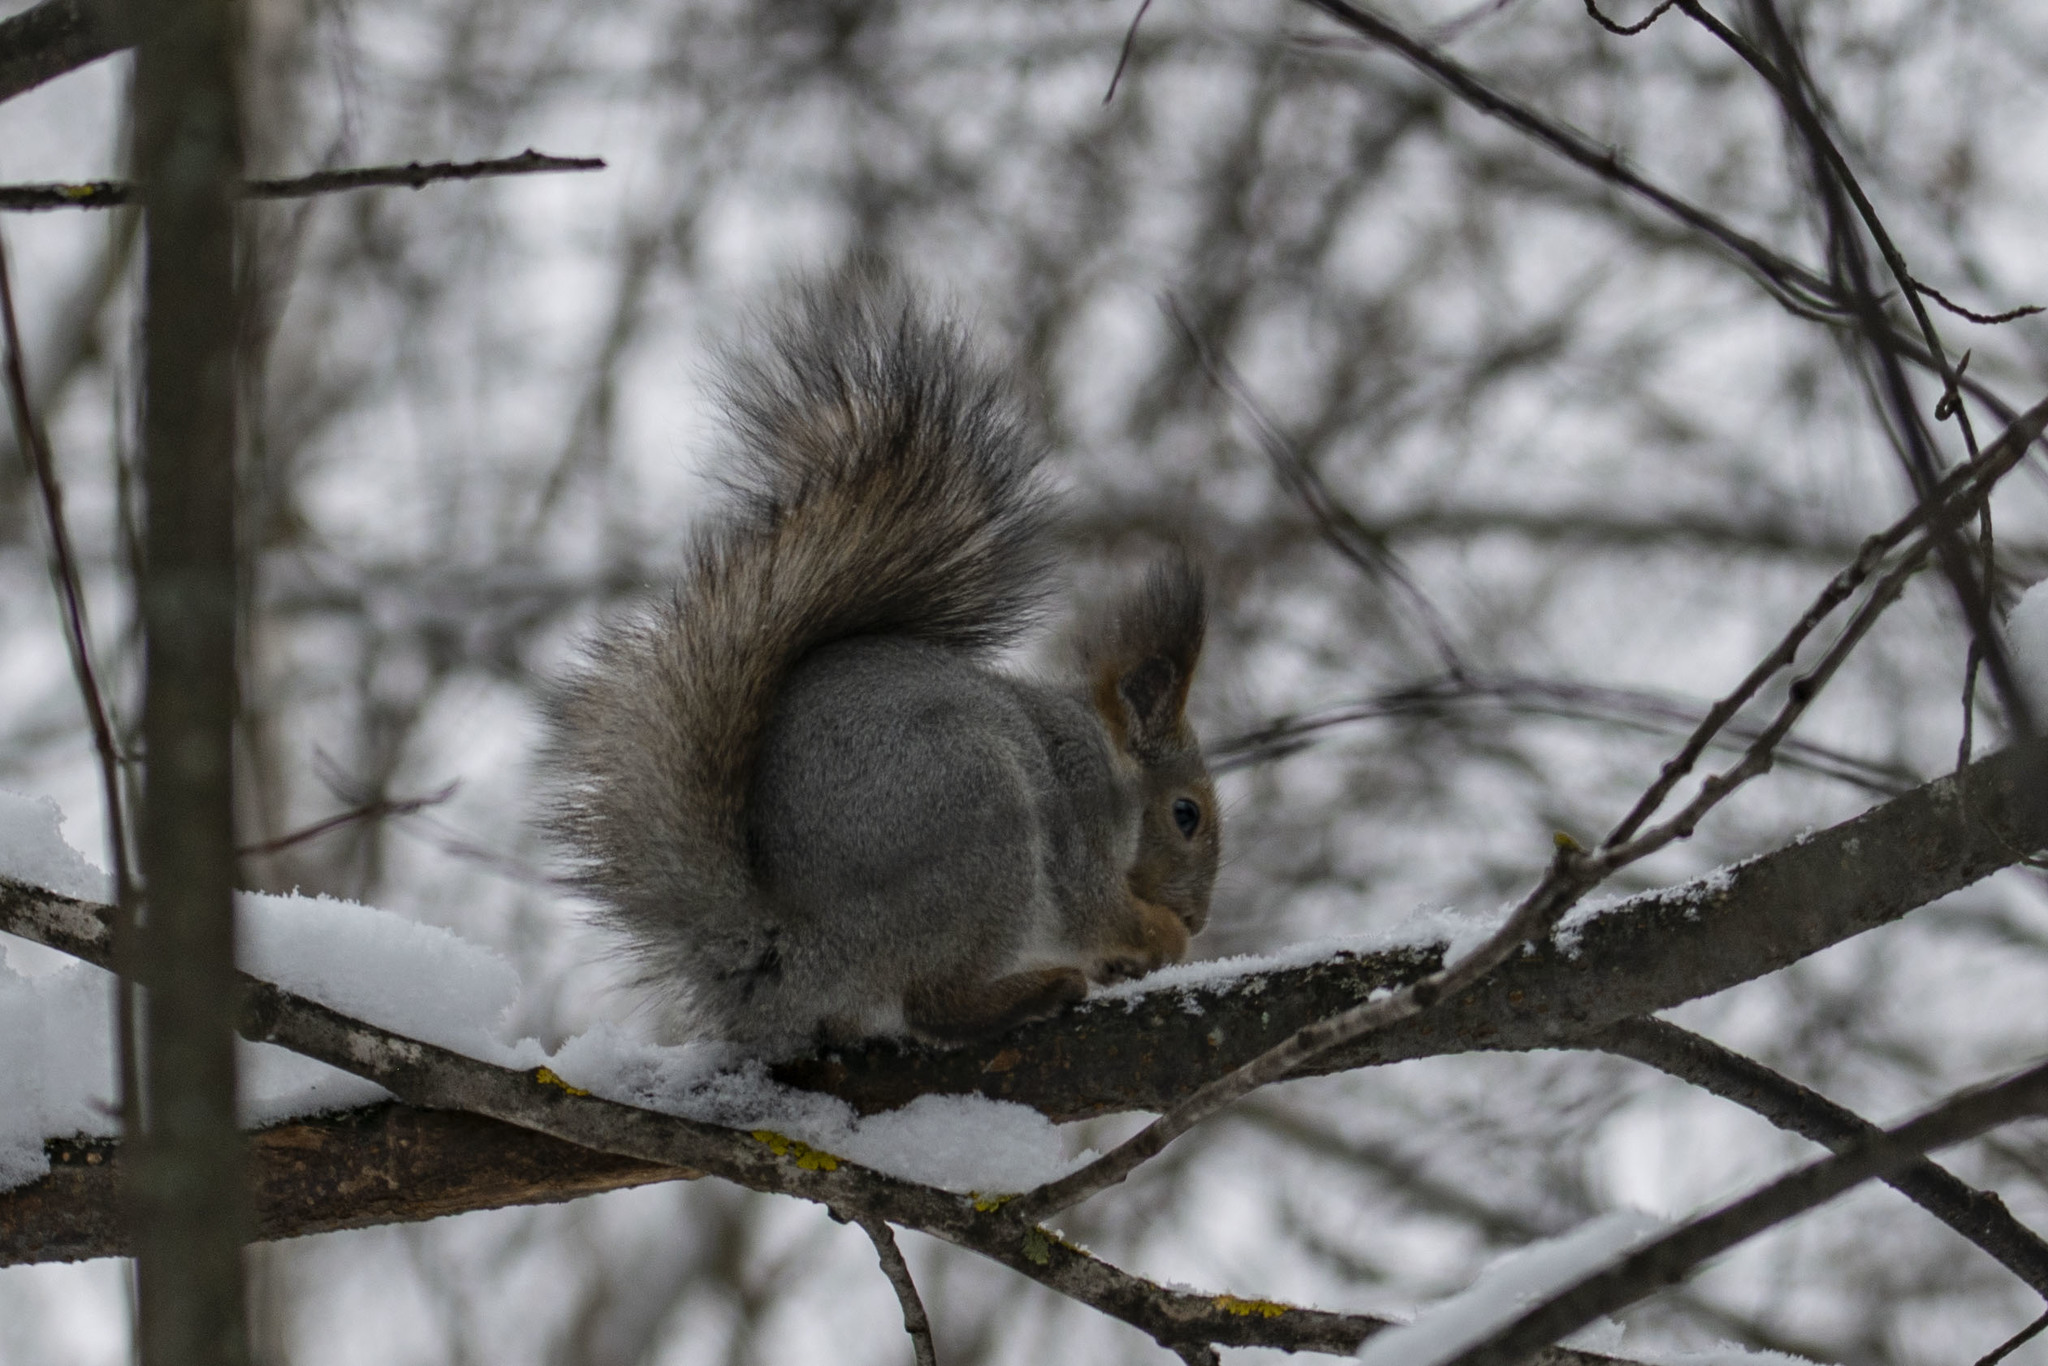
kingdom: Animalia
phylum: Chordata
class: Mammalia
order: Rodentia
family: Sciuridae
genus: Sciurus
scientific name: Sciurus vulgaris
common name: Eurasian red squirrel
